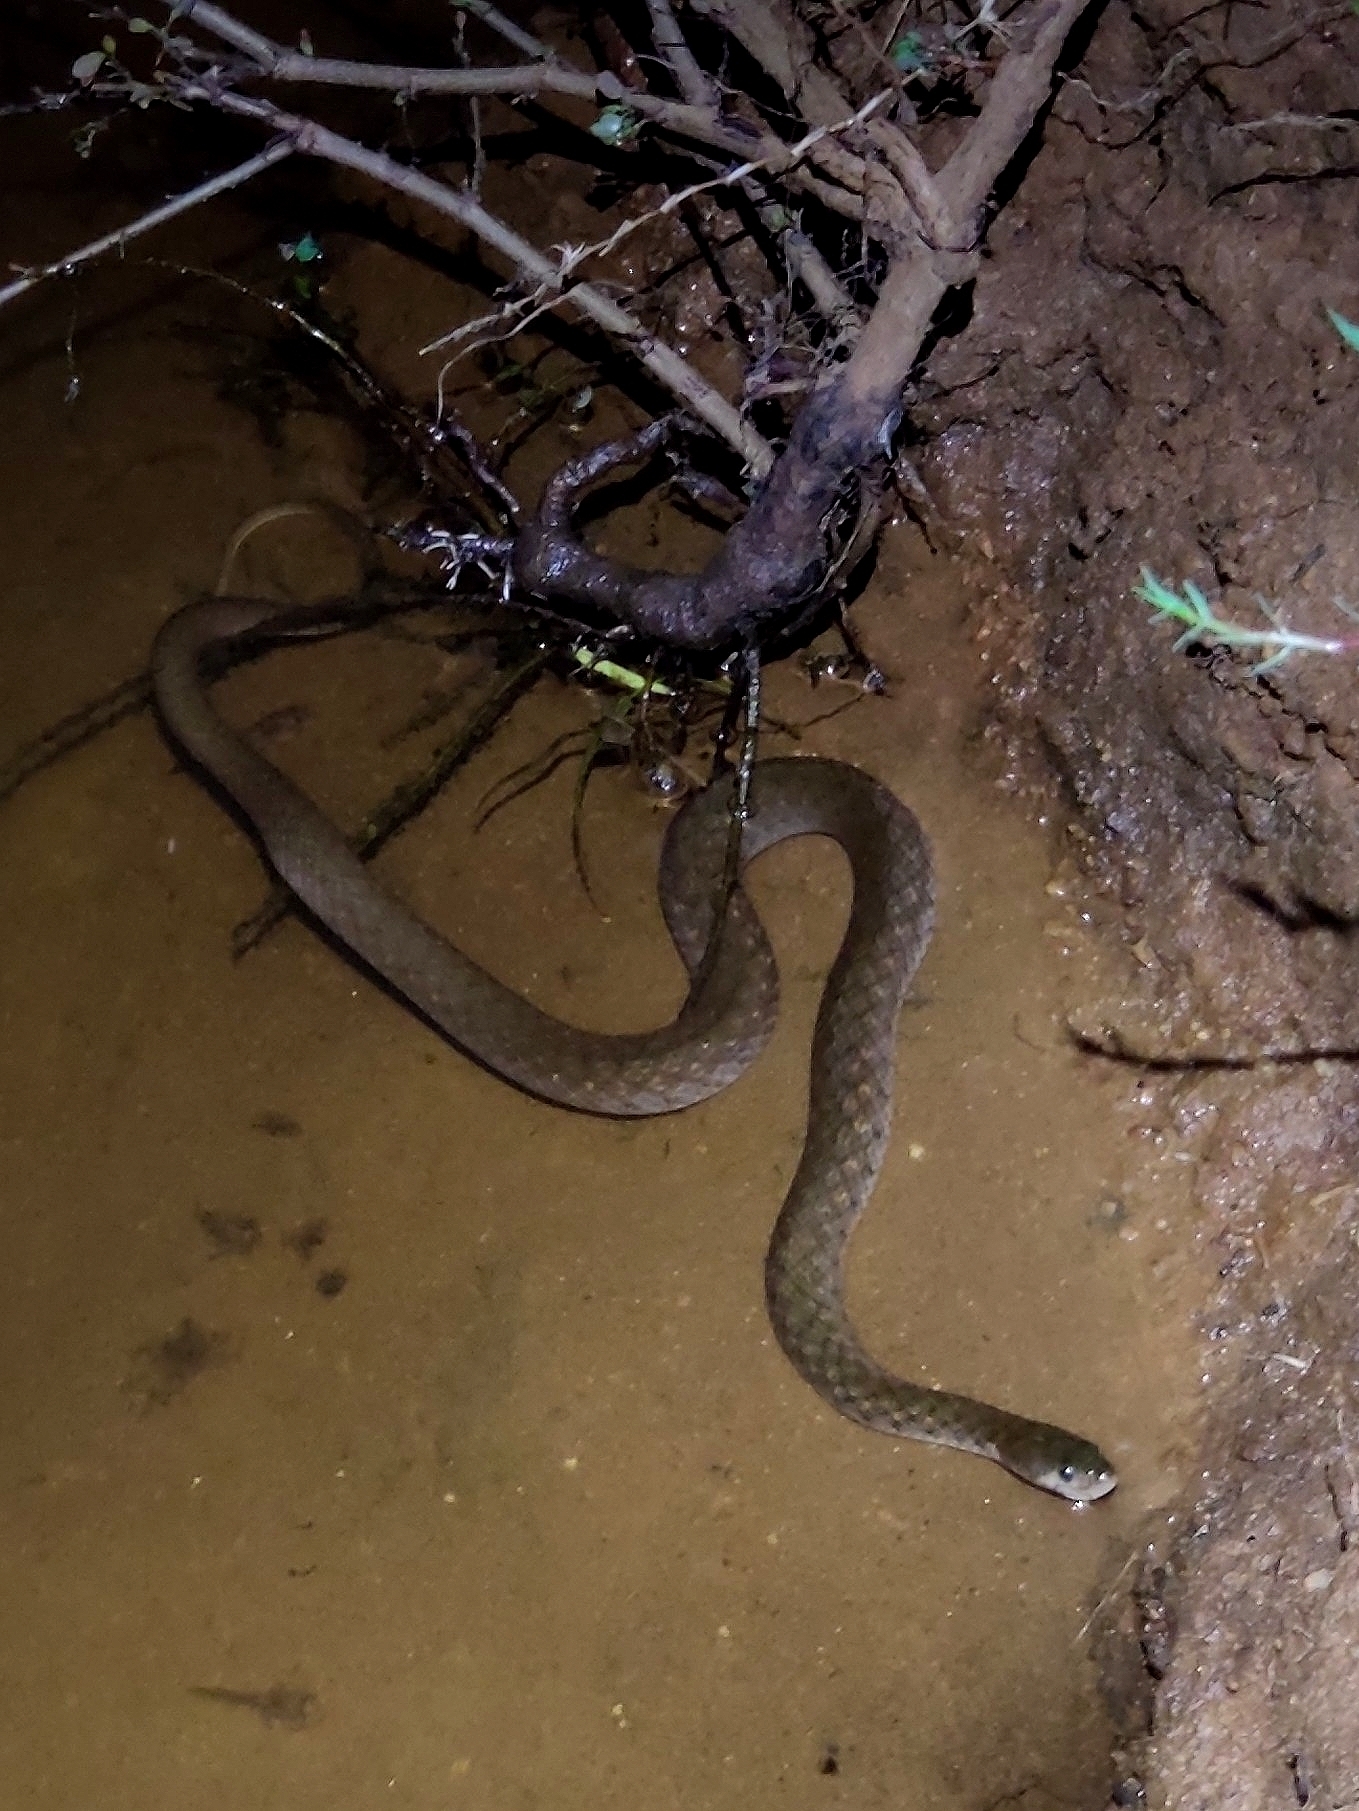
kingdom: Animalia
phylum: Chordata
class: Squamata
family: Colubridae
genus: Fowlea
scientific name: Fowlea piscator
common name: Asiatic water snake
